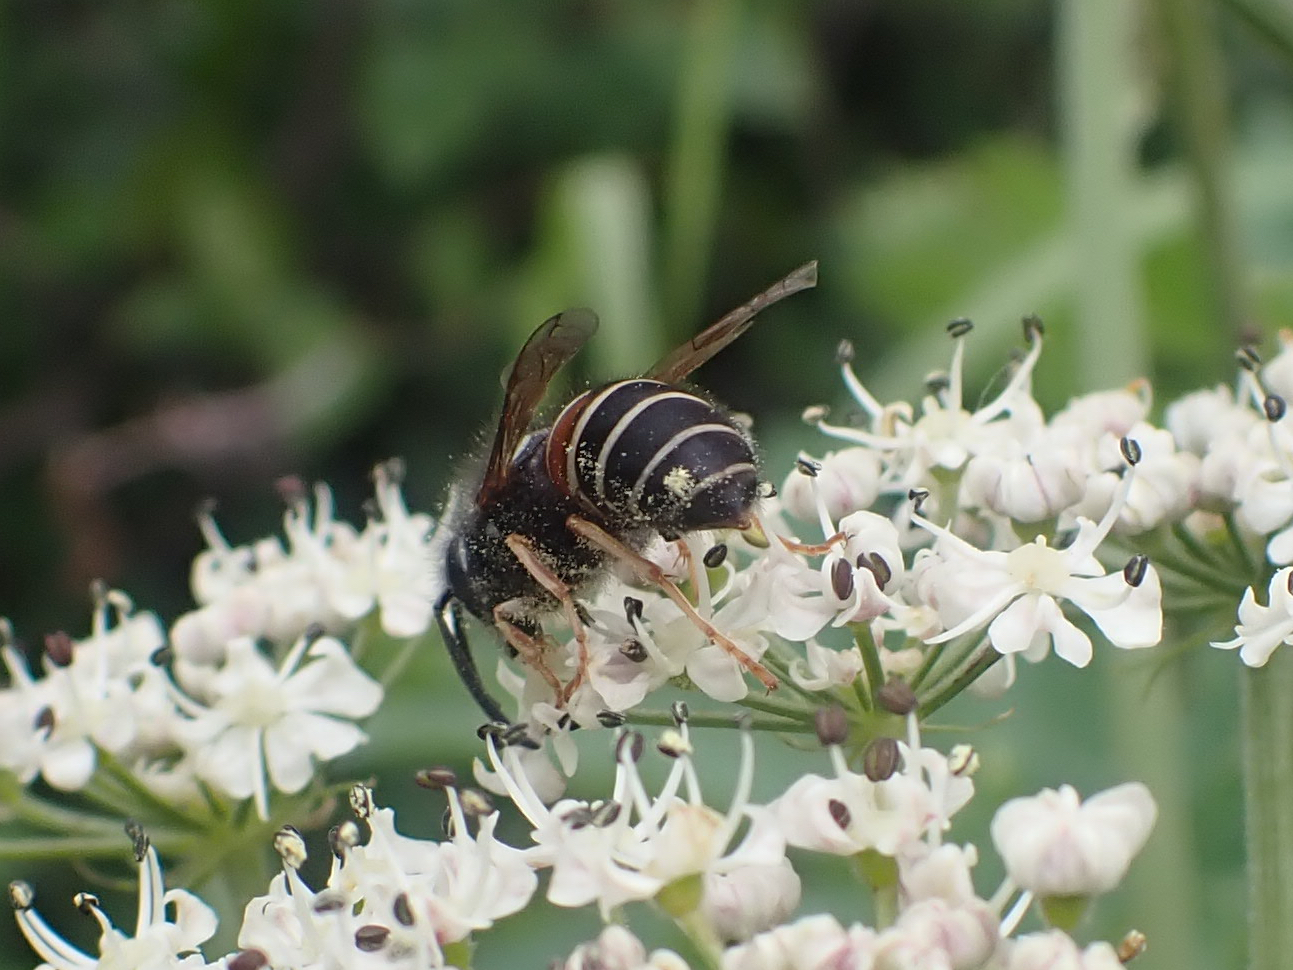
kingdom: Animalia
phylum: Arthropoda
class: Insecta
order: Hymenoptera
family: Vespidae
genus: Vespula
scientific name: Vespula intermedia
